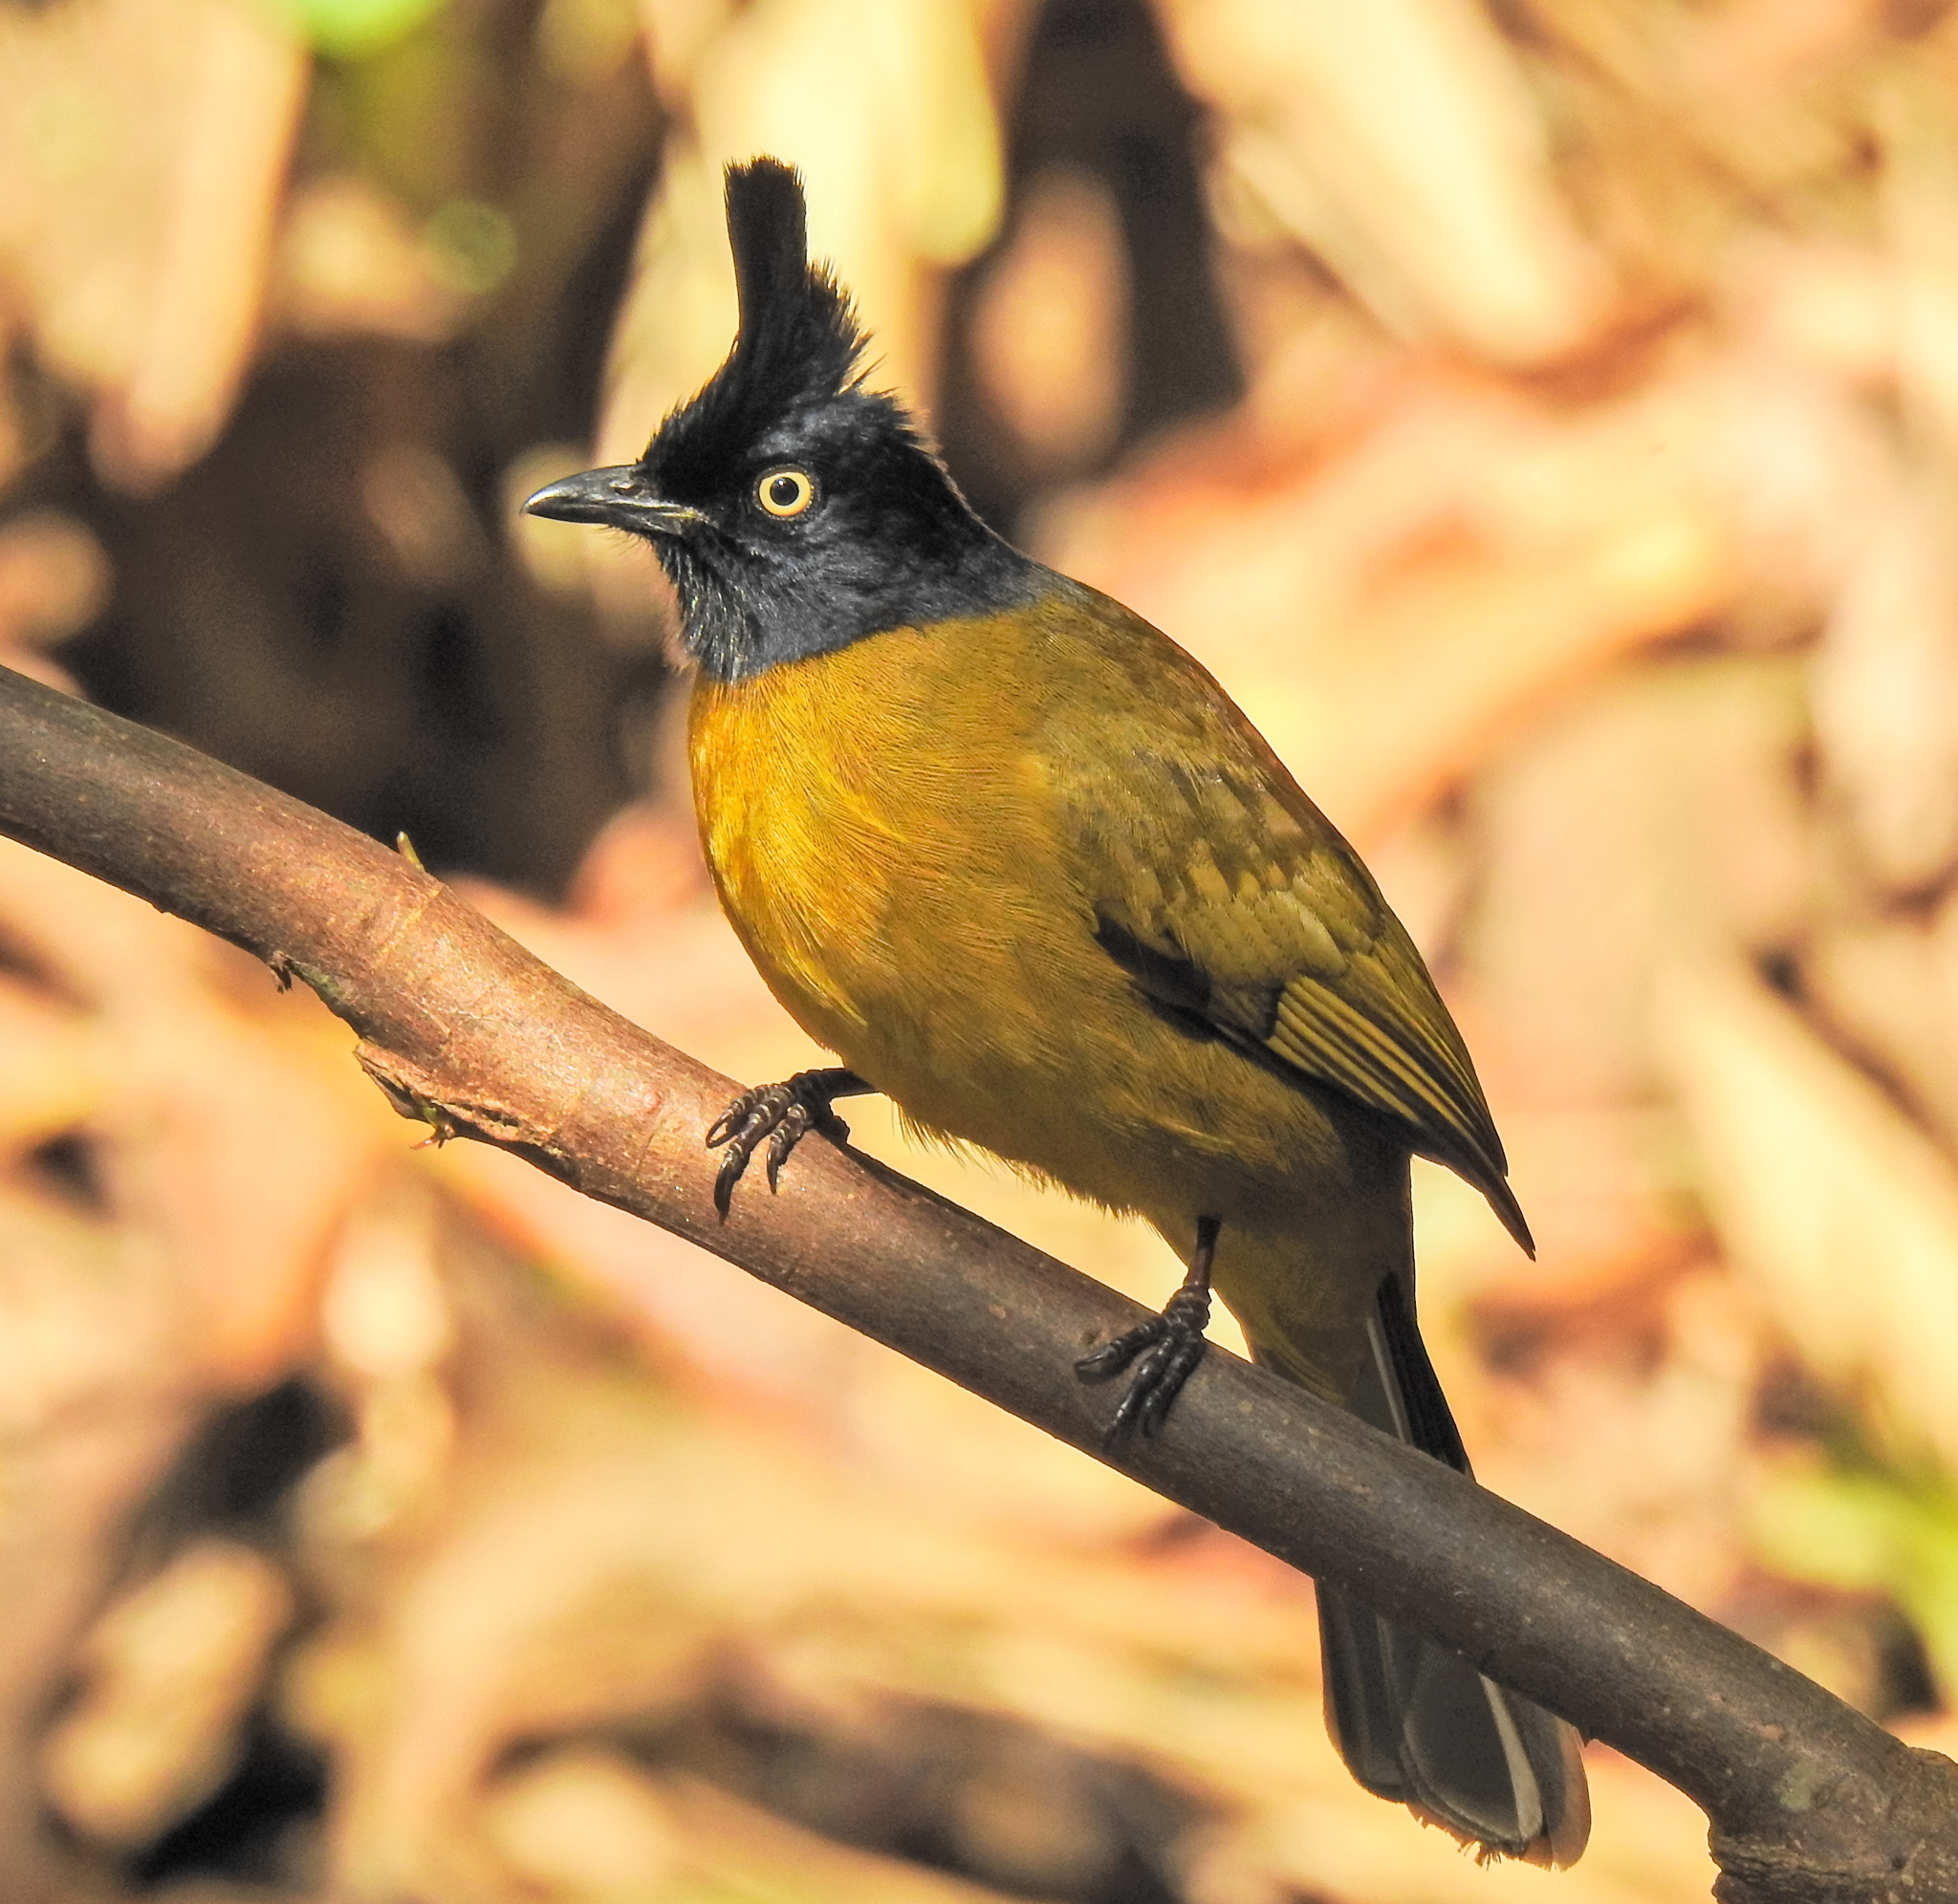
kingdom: Animalia
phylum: Chordata
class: Aves
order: Passeriformes
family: Pycnonotidae
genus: Pycnonotus
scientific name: Pycnonotus flaviventris
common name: Black-crested bulbul
